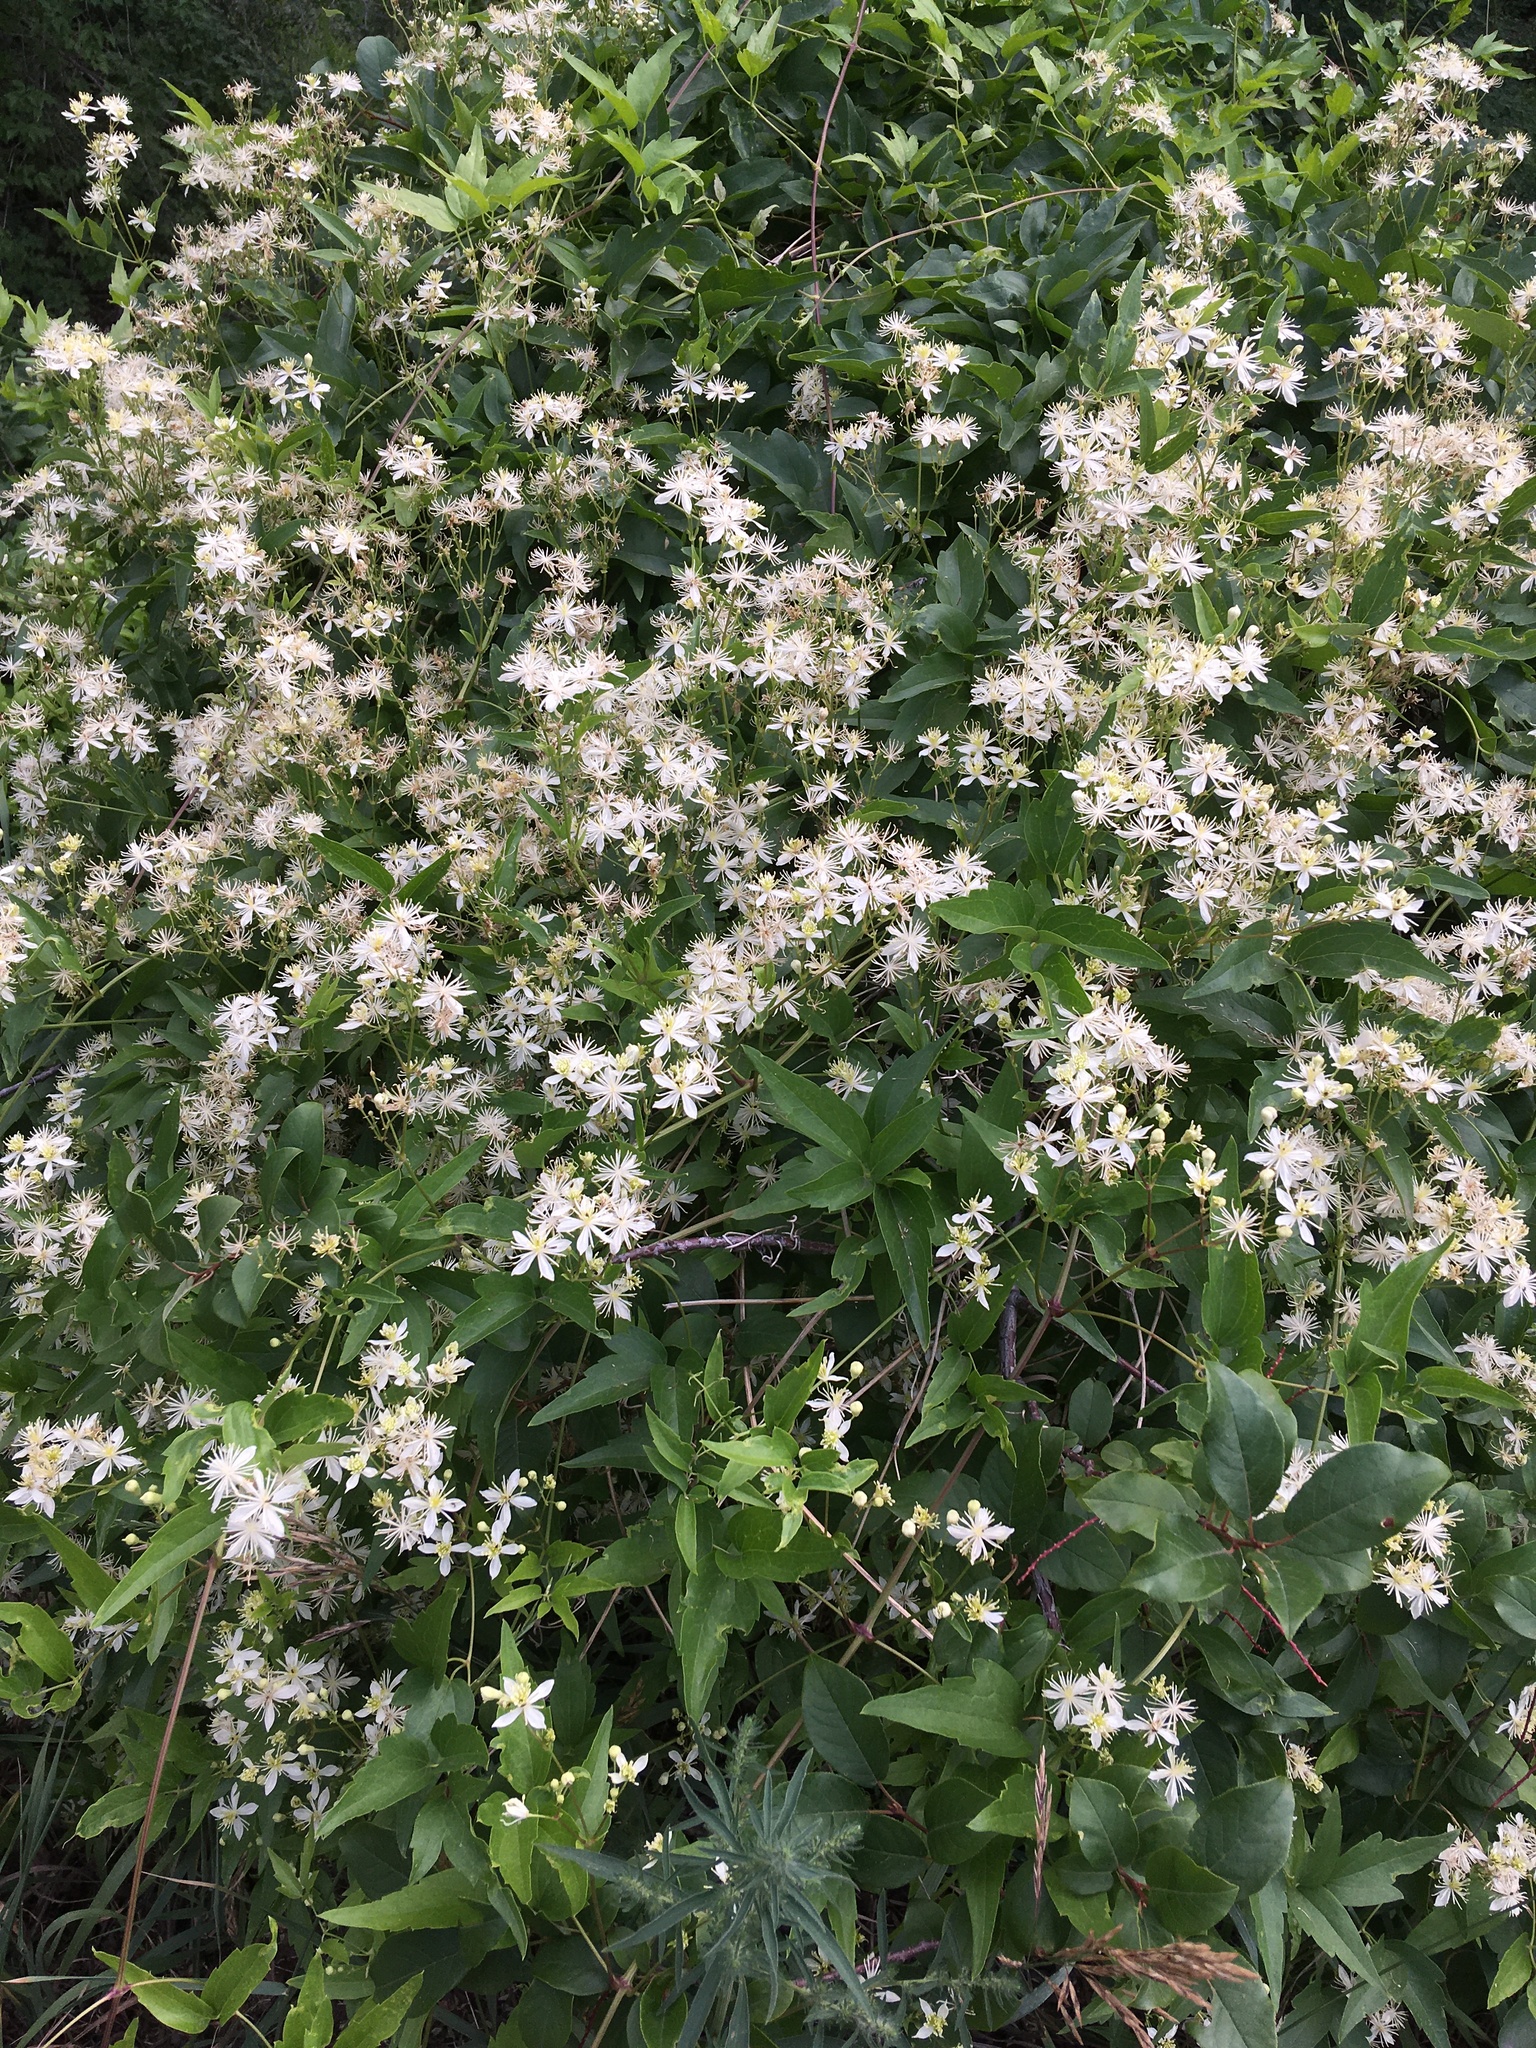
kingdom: Plantae
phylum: Tracheophyta
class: Magnoliopsida
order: Ranunculales
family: Ranunculaceae
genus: Clematis
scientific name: Clematis ligusticifolia
